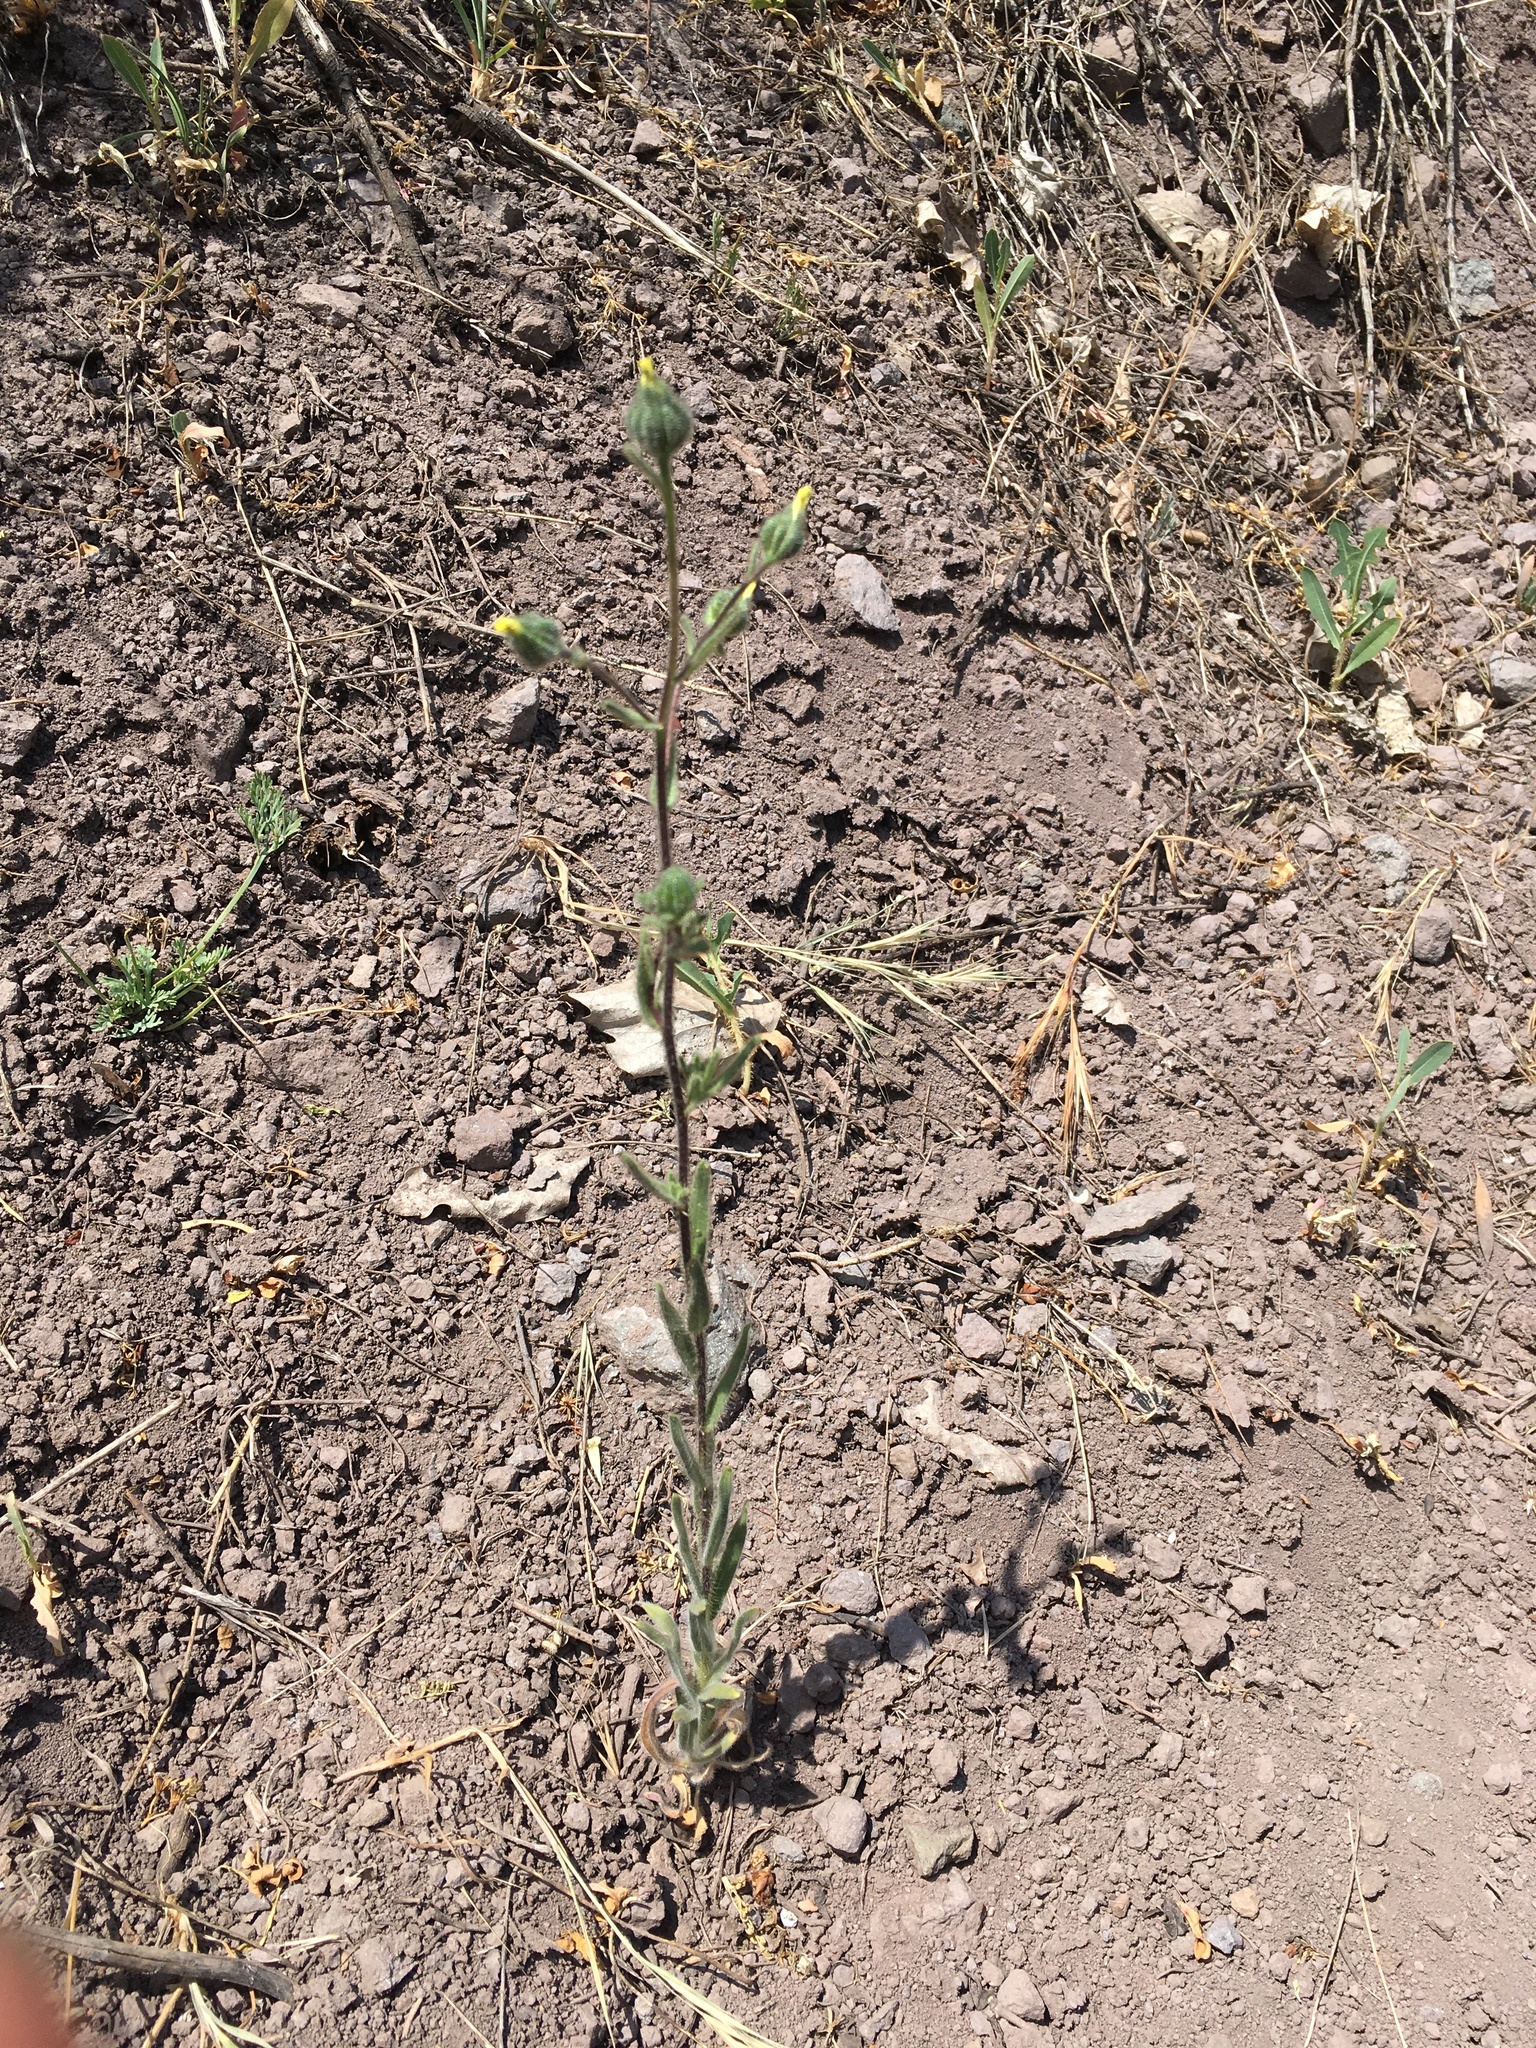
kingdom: Plantae
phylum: Tracheophyta
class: Magnoliopsida
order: Asterales
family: Asteraceae
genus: Madia
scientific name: Madia sativa
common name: Coast tarweed
